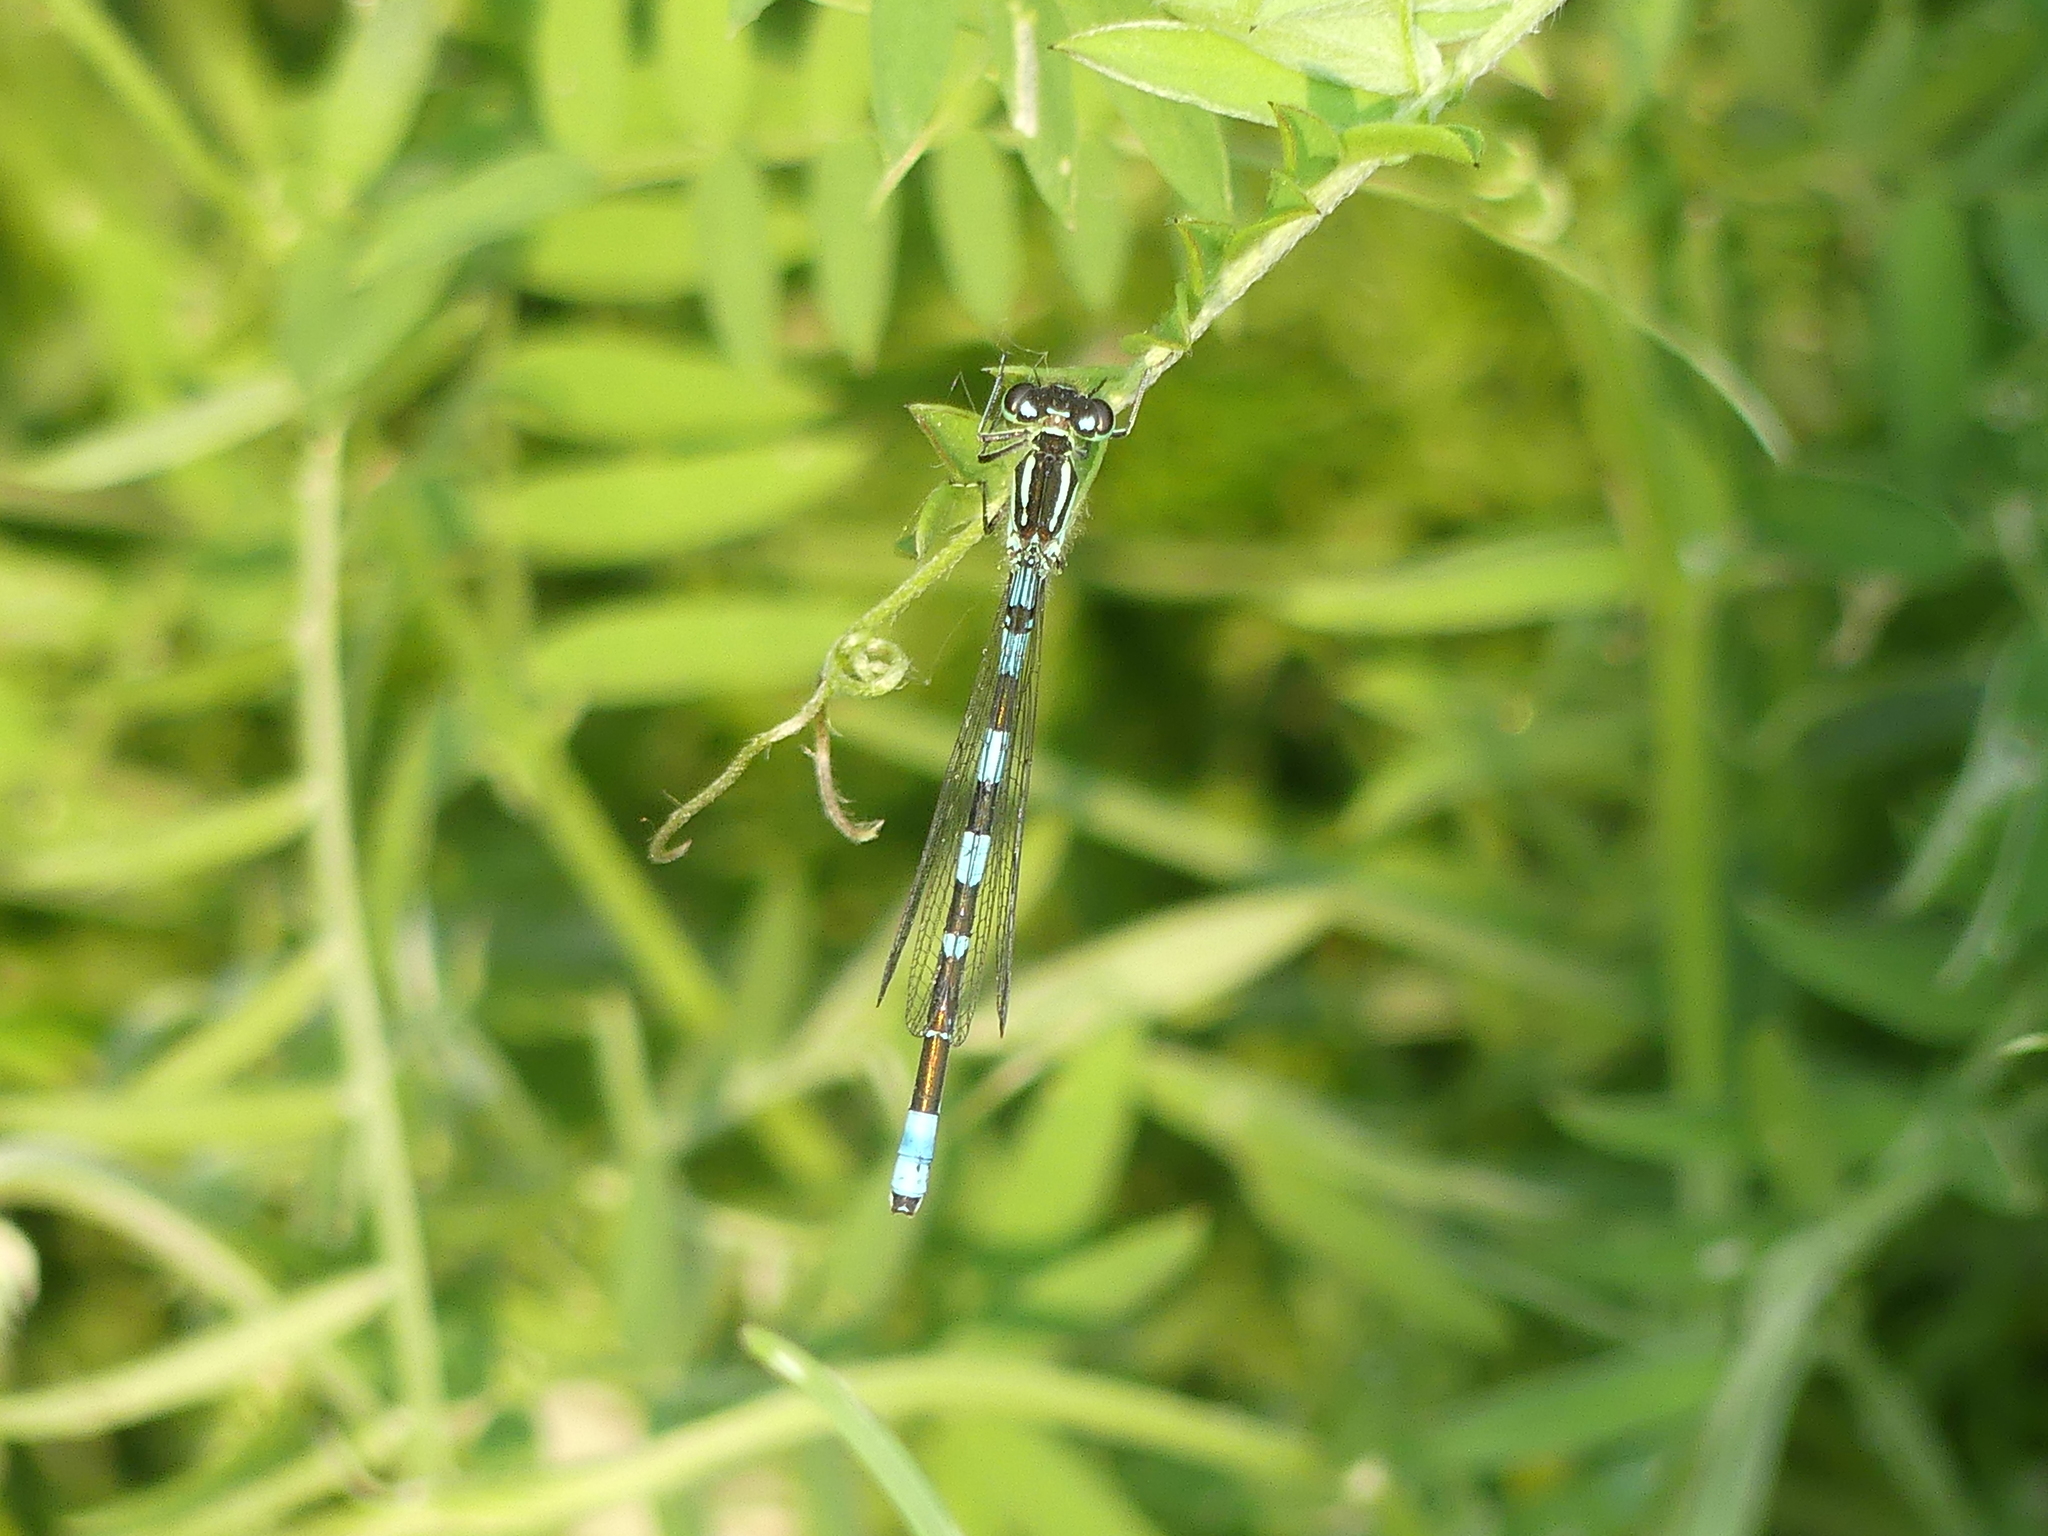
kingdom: Animalia
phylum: Arthropoda
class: Insecta
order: Odonata
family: Coenagrionidae
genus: Coenagrion
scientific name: Coenagrion resolutum
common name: Taiga bluet
